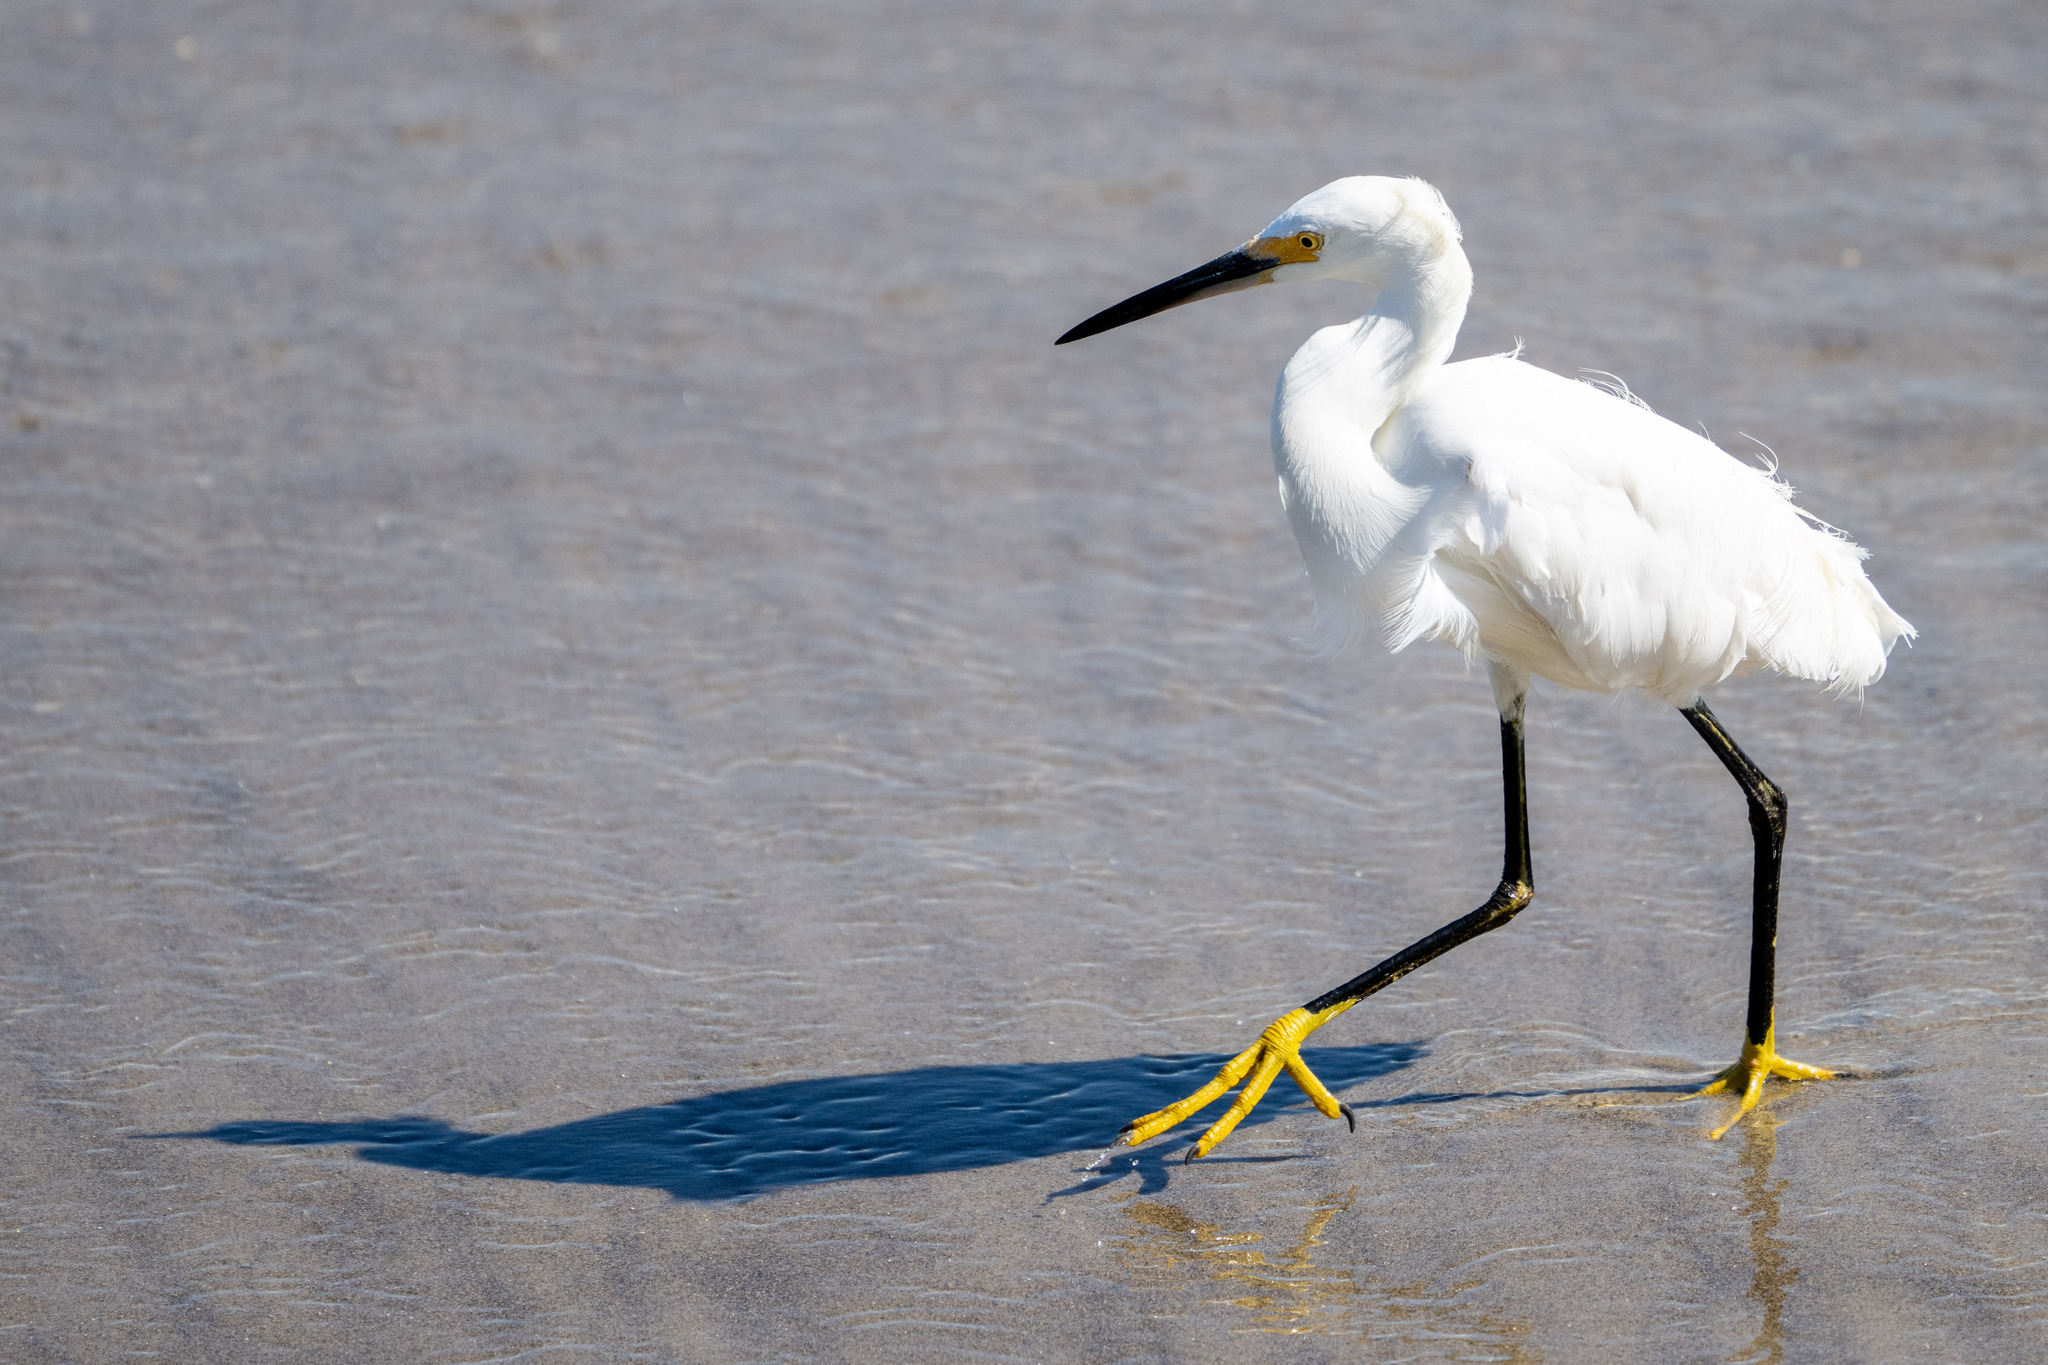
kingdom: Animalia
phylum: Chordata
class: Aves
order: Pelecaniformes
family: Ardeidae
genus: Egretta
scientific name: Egretta thula
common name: Snowy egret
